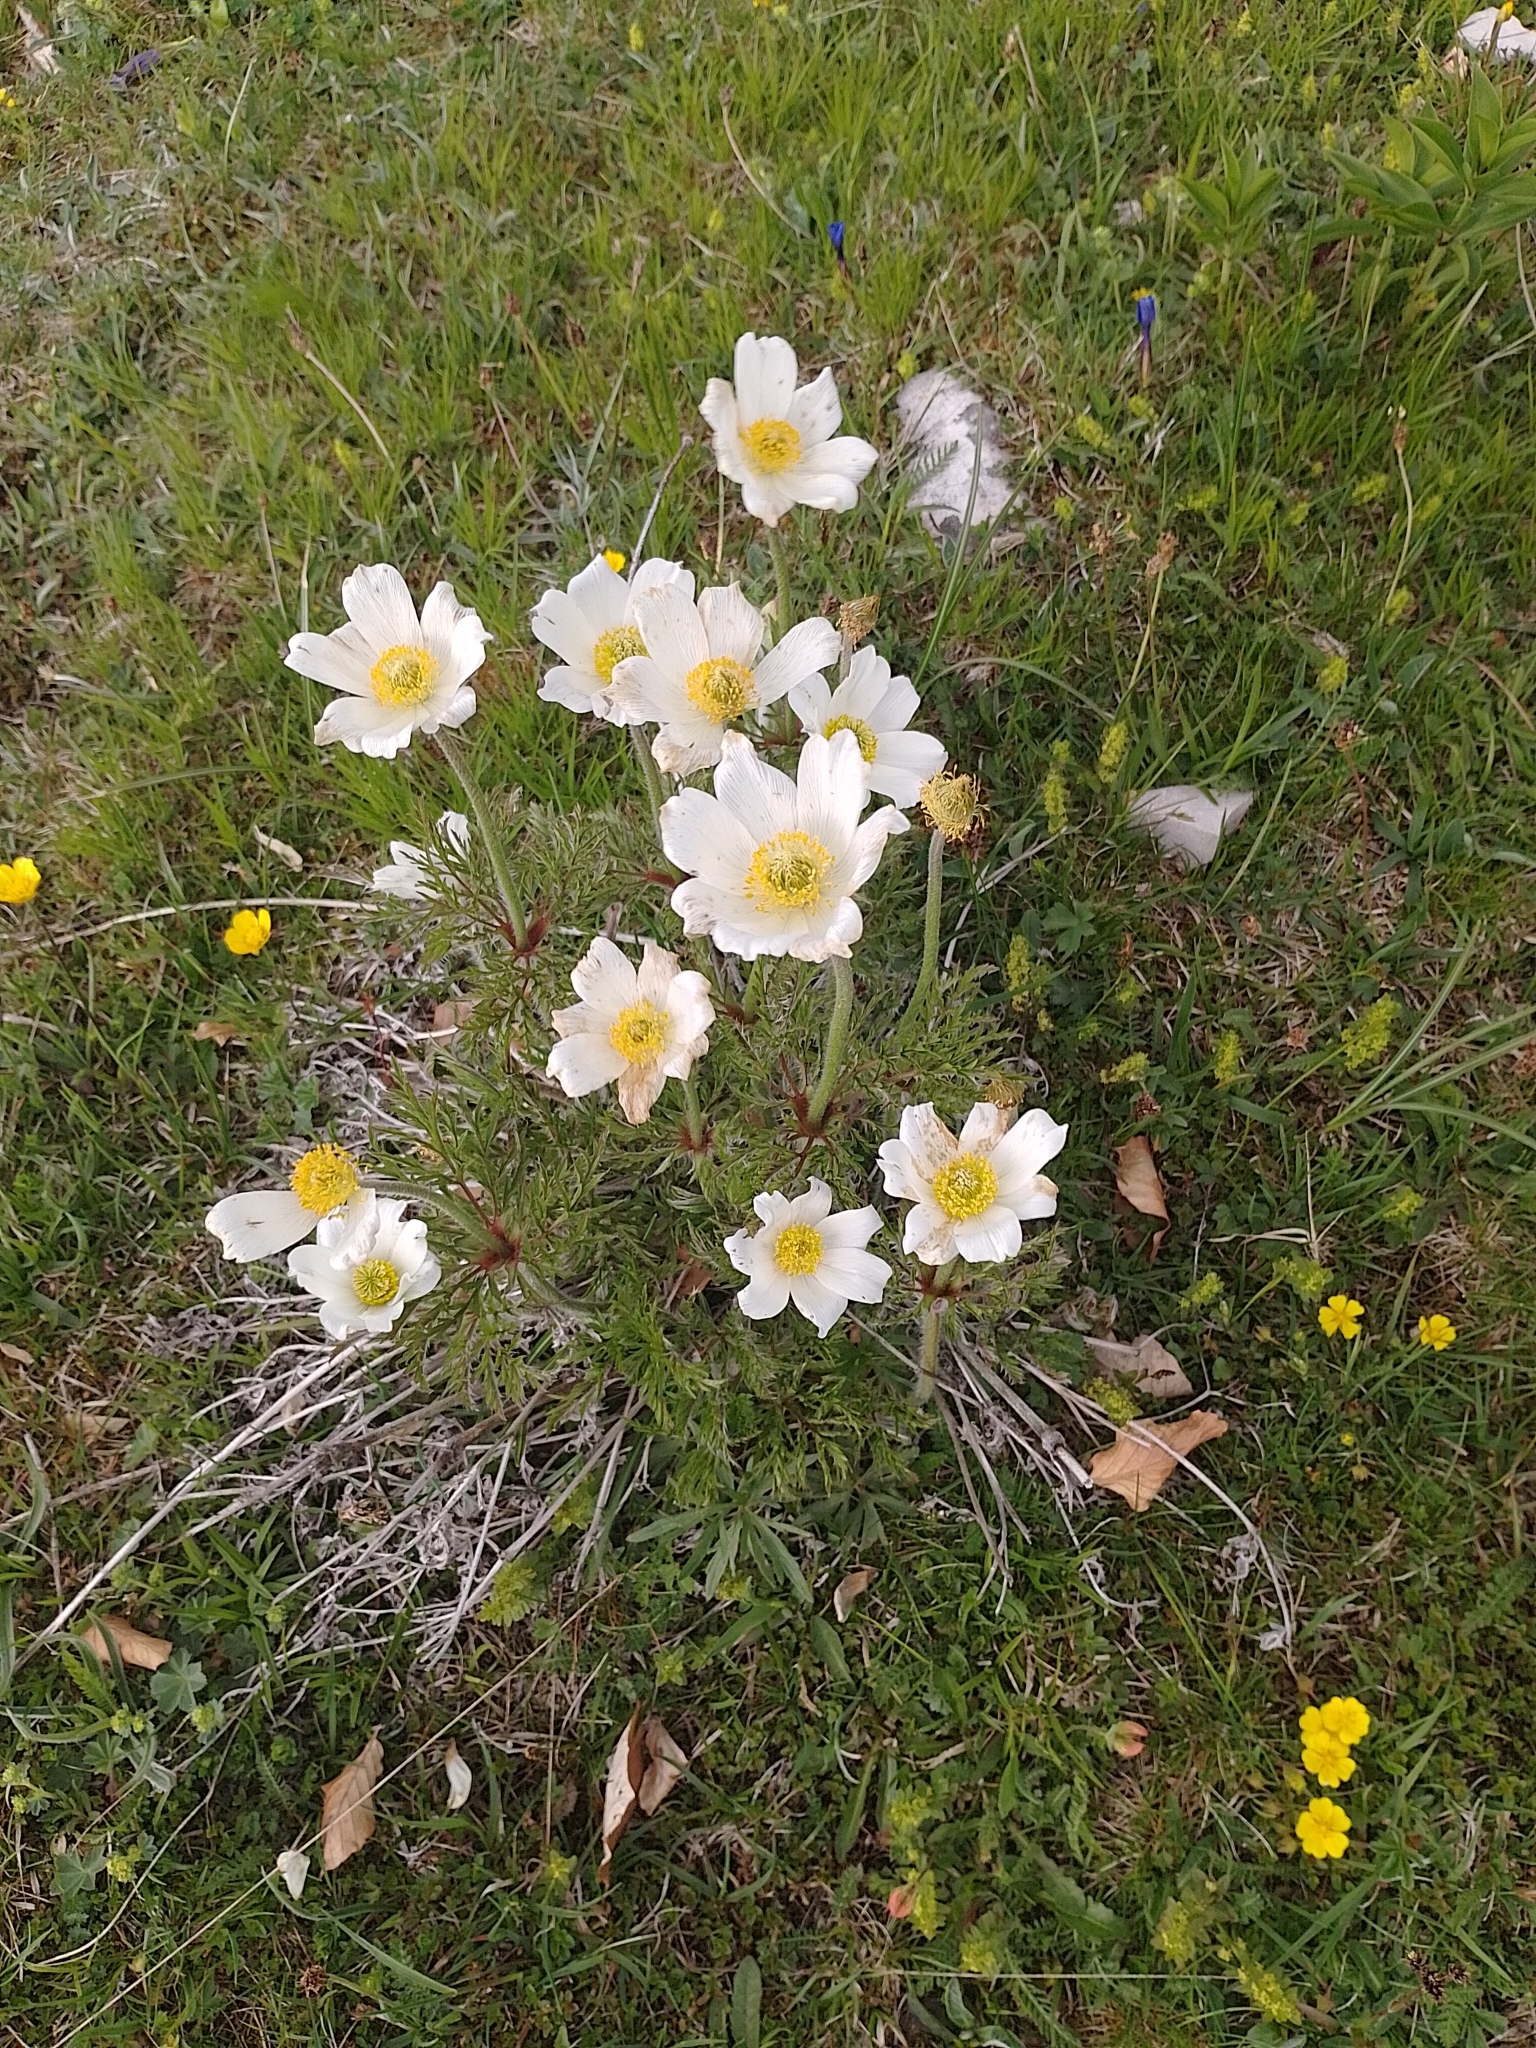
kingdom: Plantae
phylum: Tracheophyta
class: Magnoliopsida
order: Ranunculales
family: Ranunculaceae
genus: Pulsatilla
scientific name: Pulsatilla alpina
